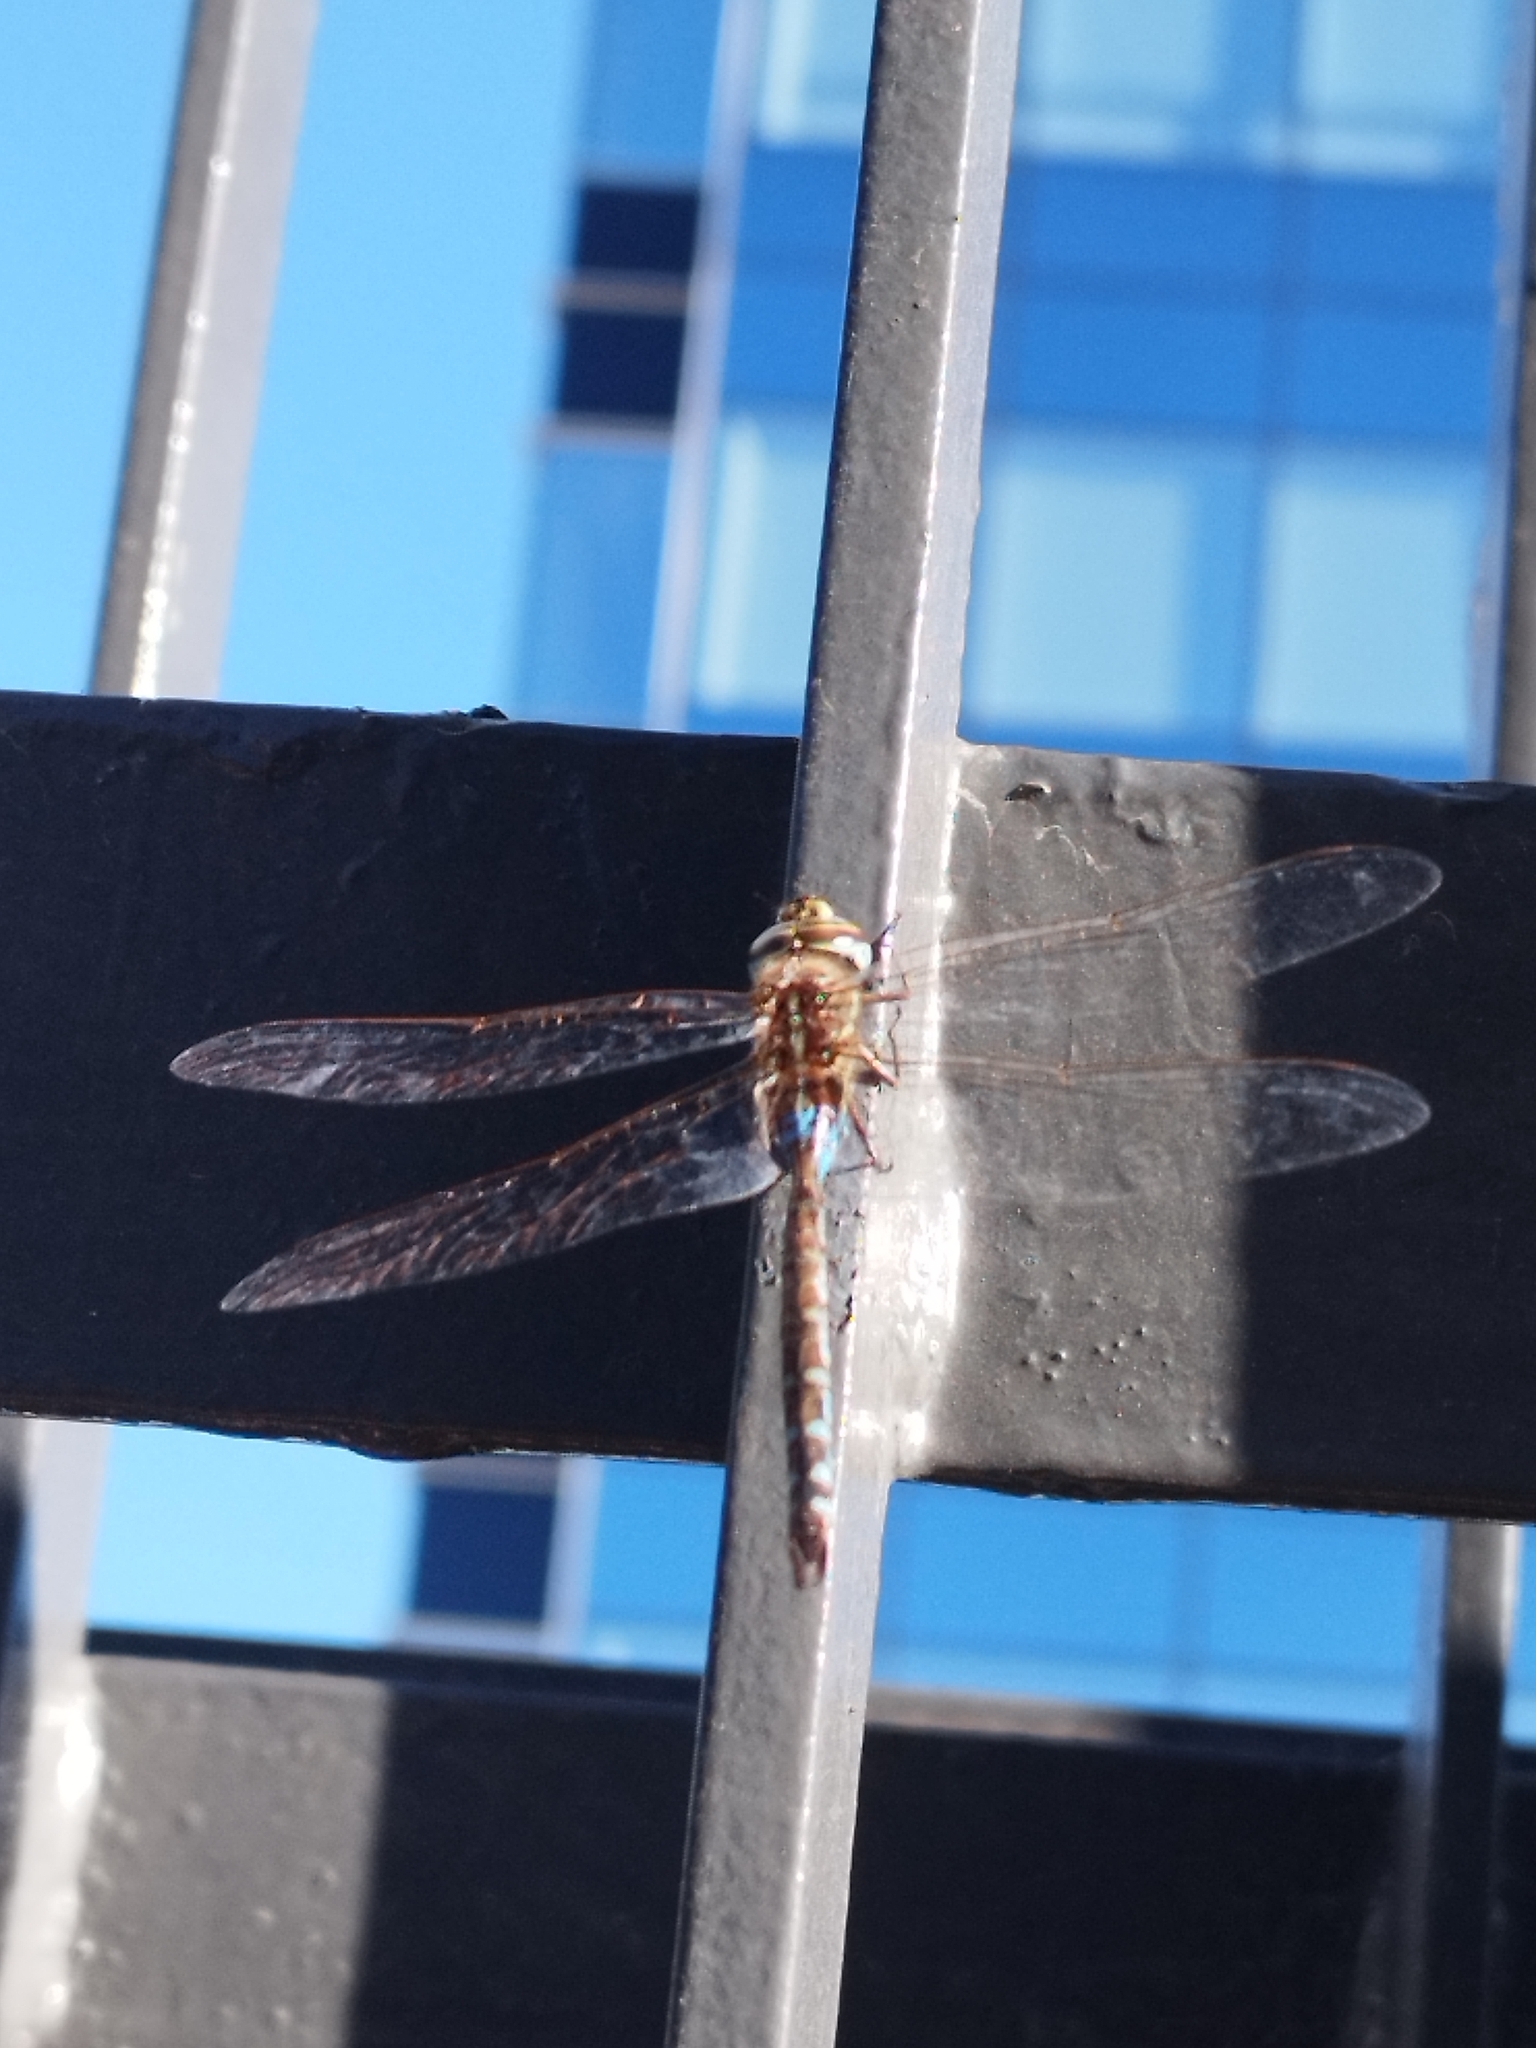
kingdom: Animalia
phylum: Arthropoda
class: Insecta
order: Odonata
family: Aeshnidae
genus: Rhionaeschna
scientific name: Rhionaeschna bonariensis
